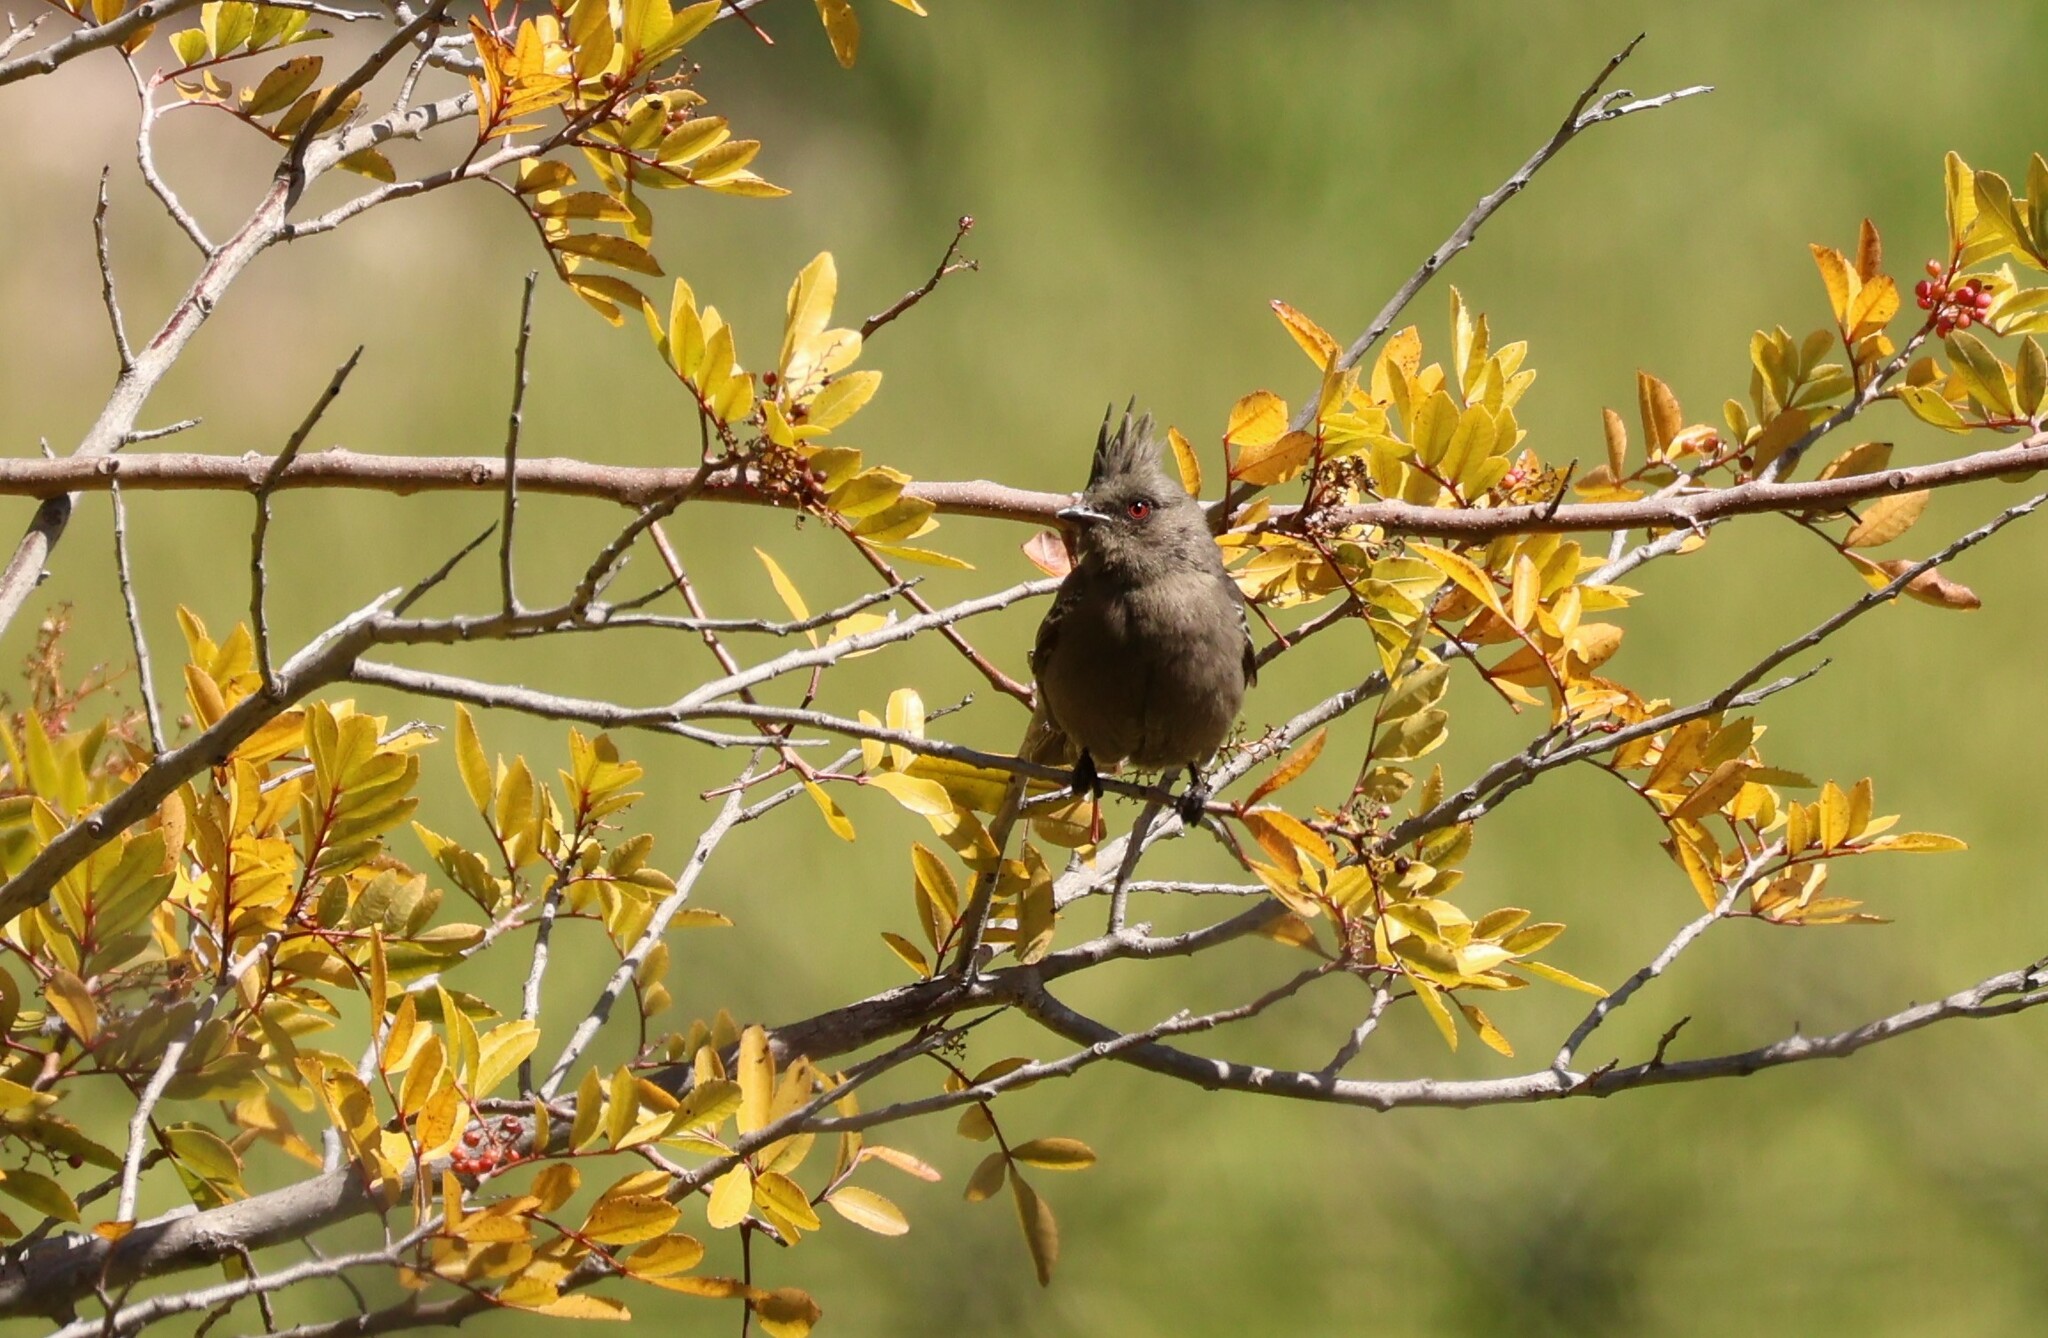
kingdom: Animalia
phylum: Chordata
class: Aves
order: Passeriformes
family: Ptilogonatidae
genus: Phainopepla
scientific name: Phainopepla nitens
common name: Phainopepla
